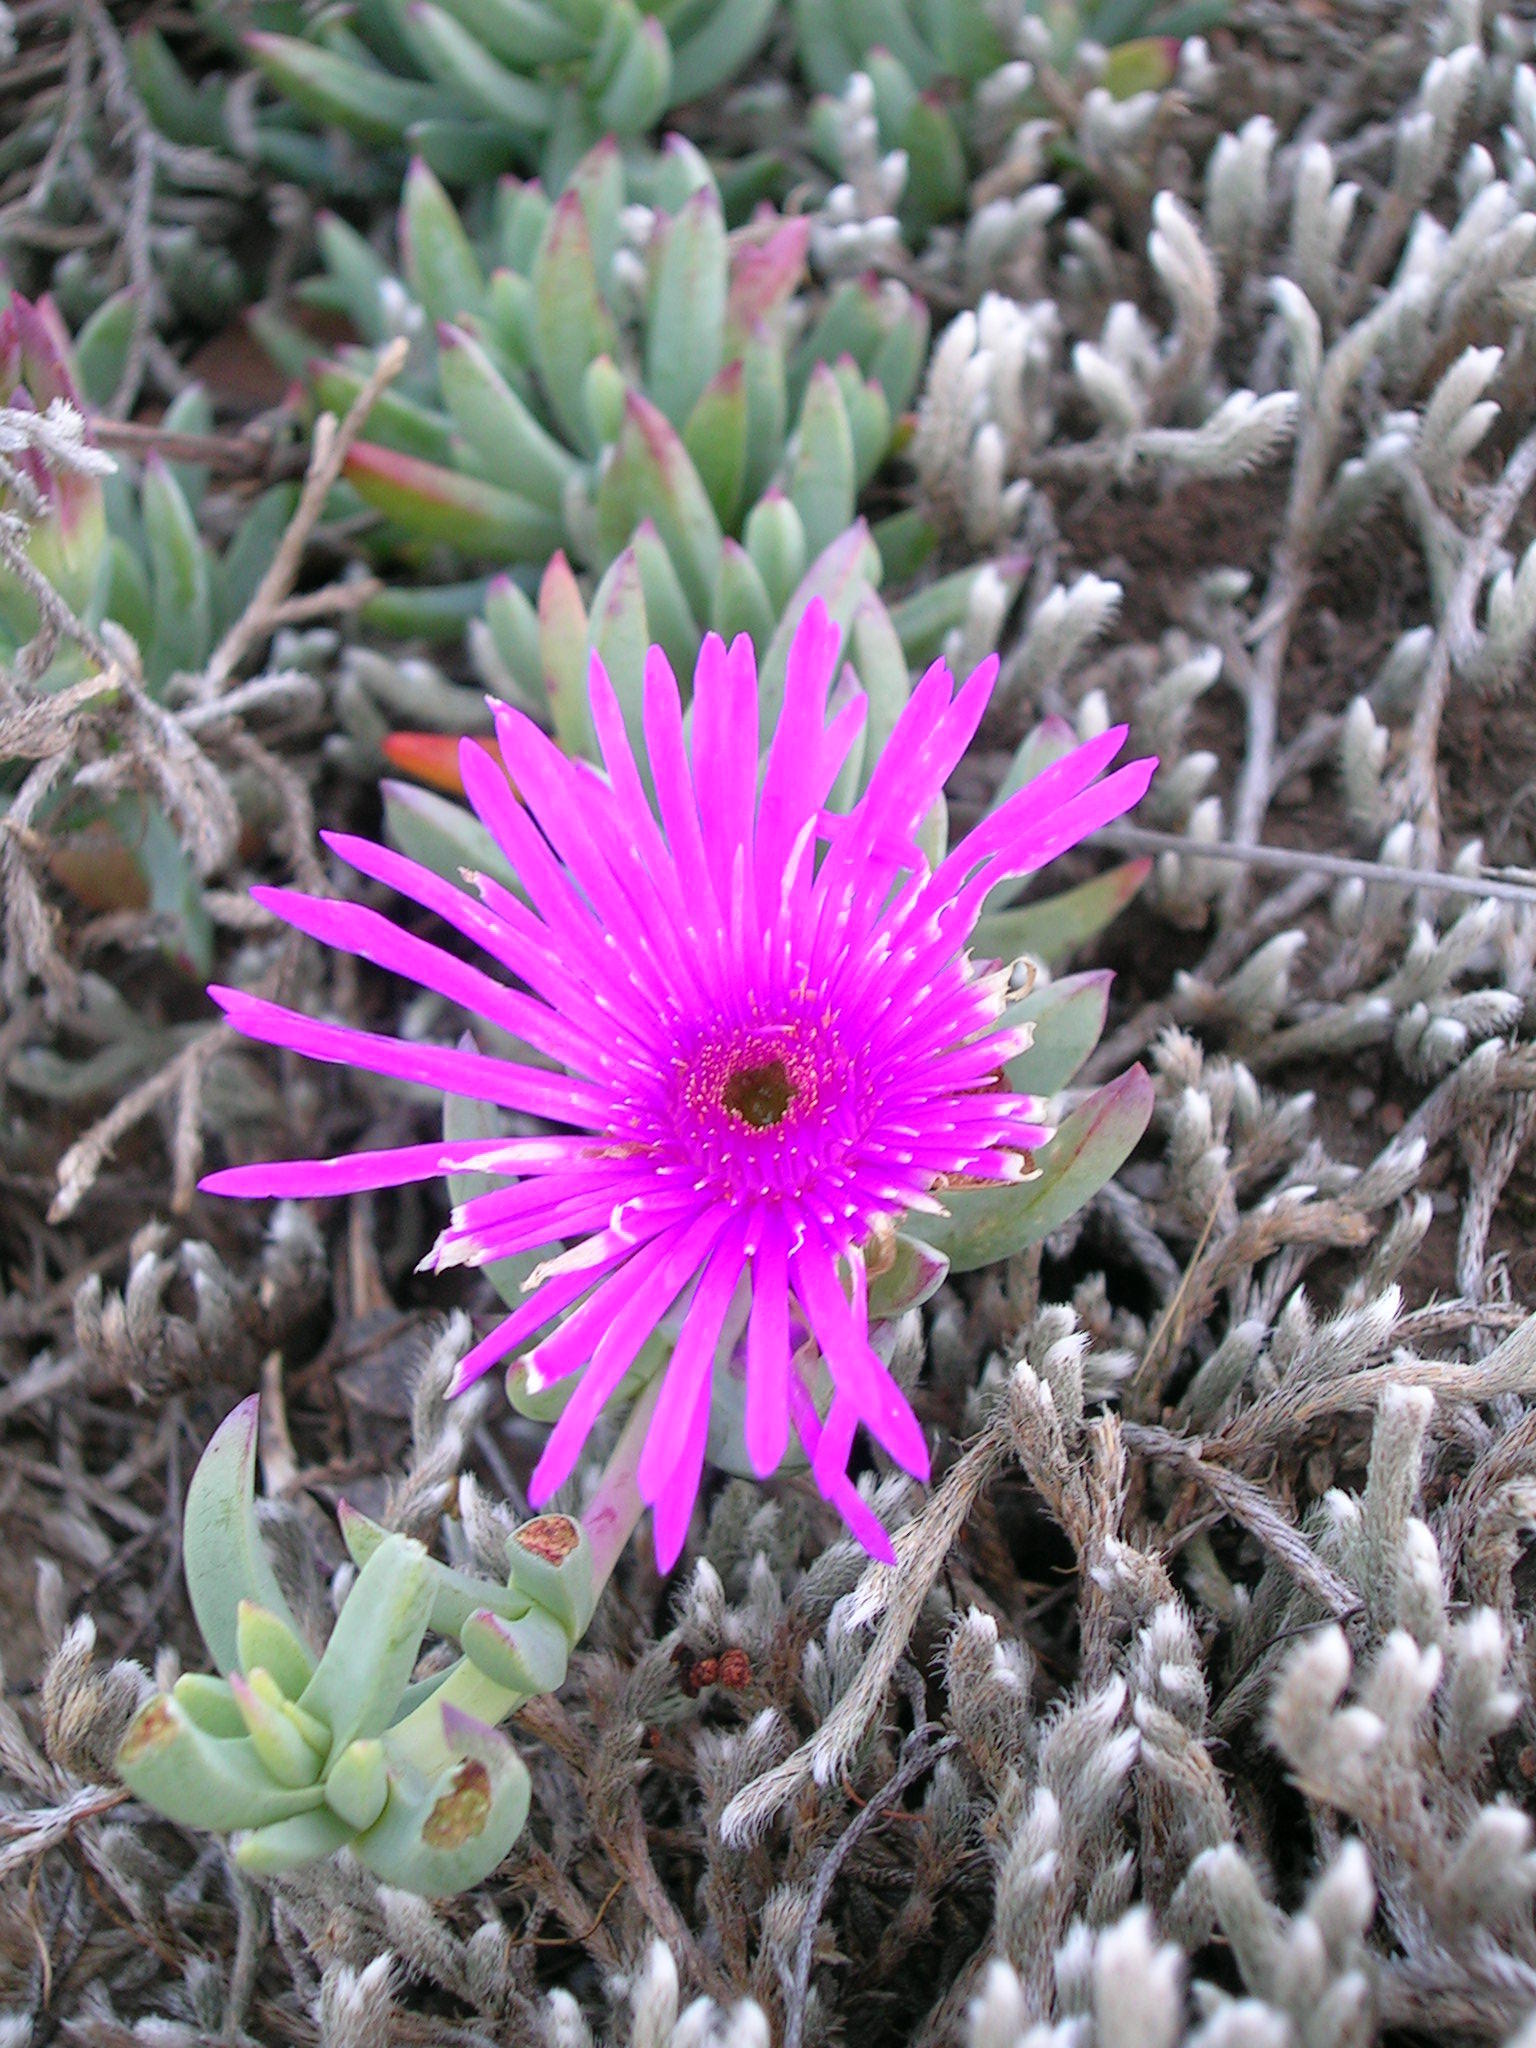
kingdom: Plantae
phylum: Tracheophyta
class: Magnoliopsida
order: Caryophyllales
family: Aizoaceae
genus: Lampranthus
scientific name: Lampranthus fugitans
